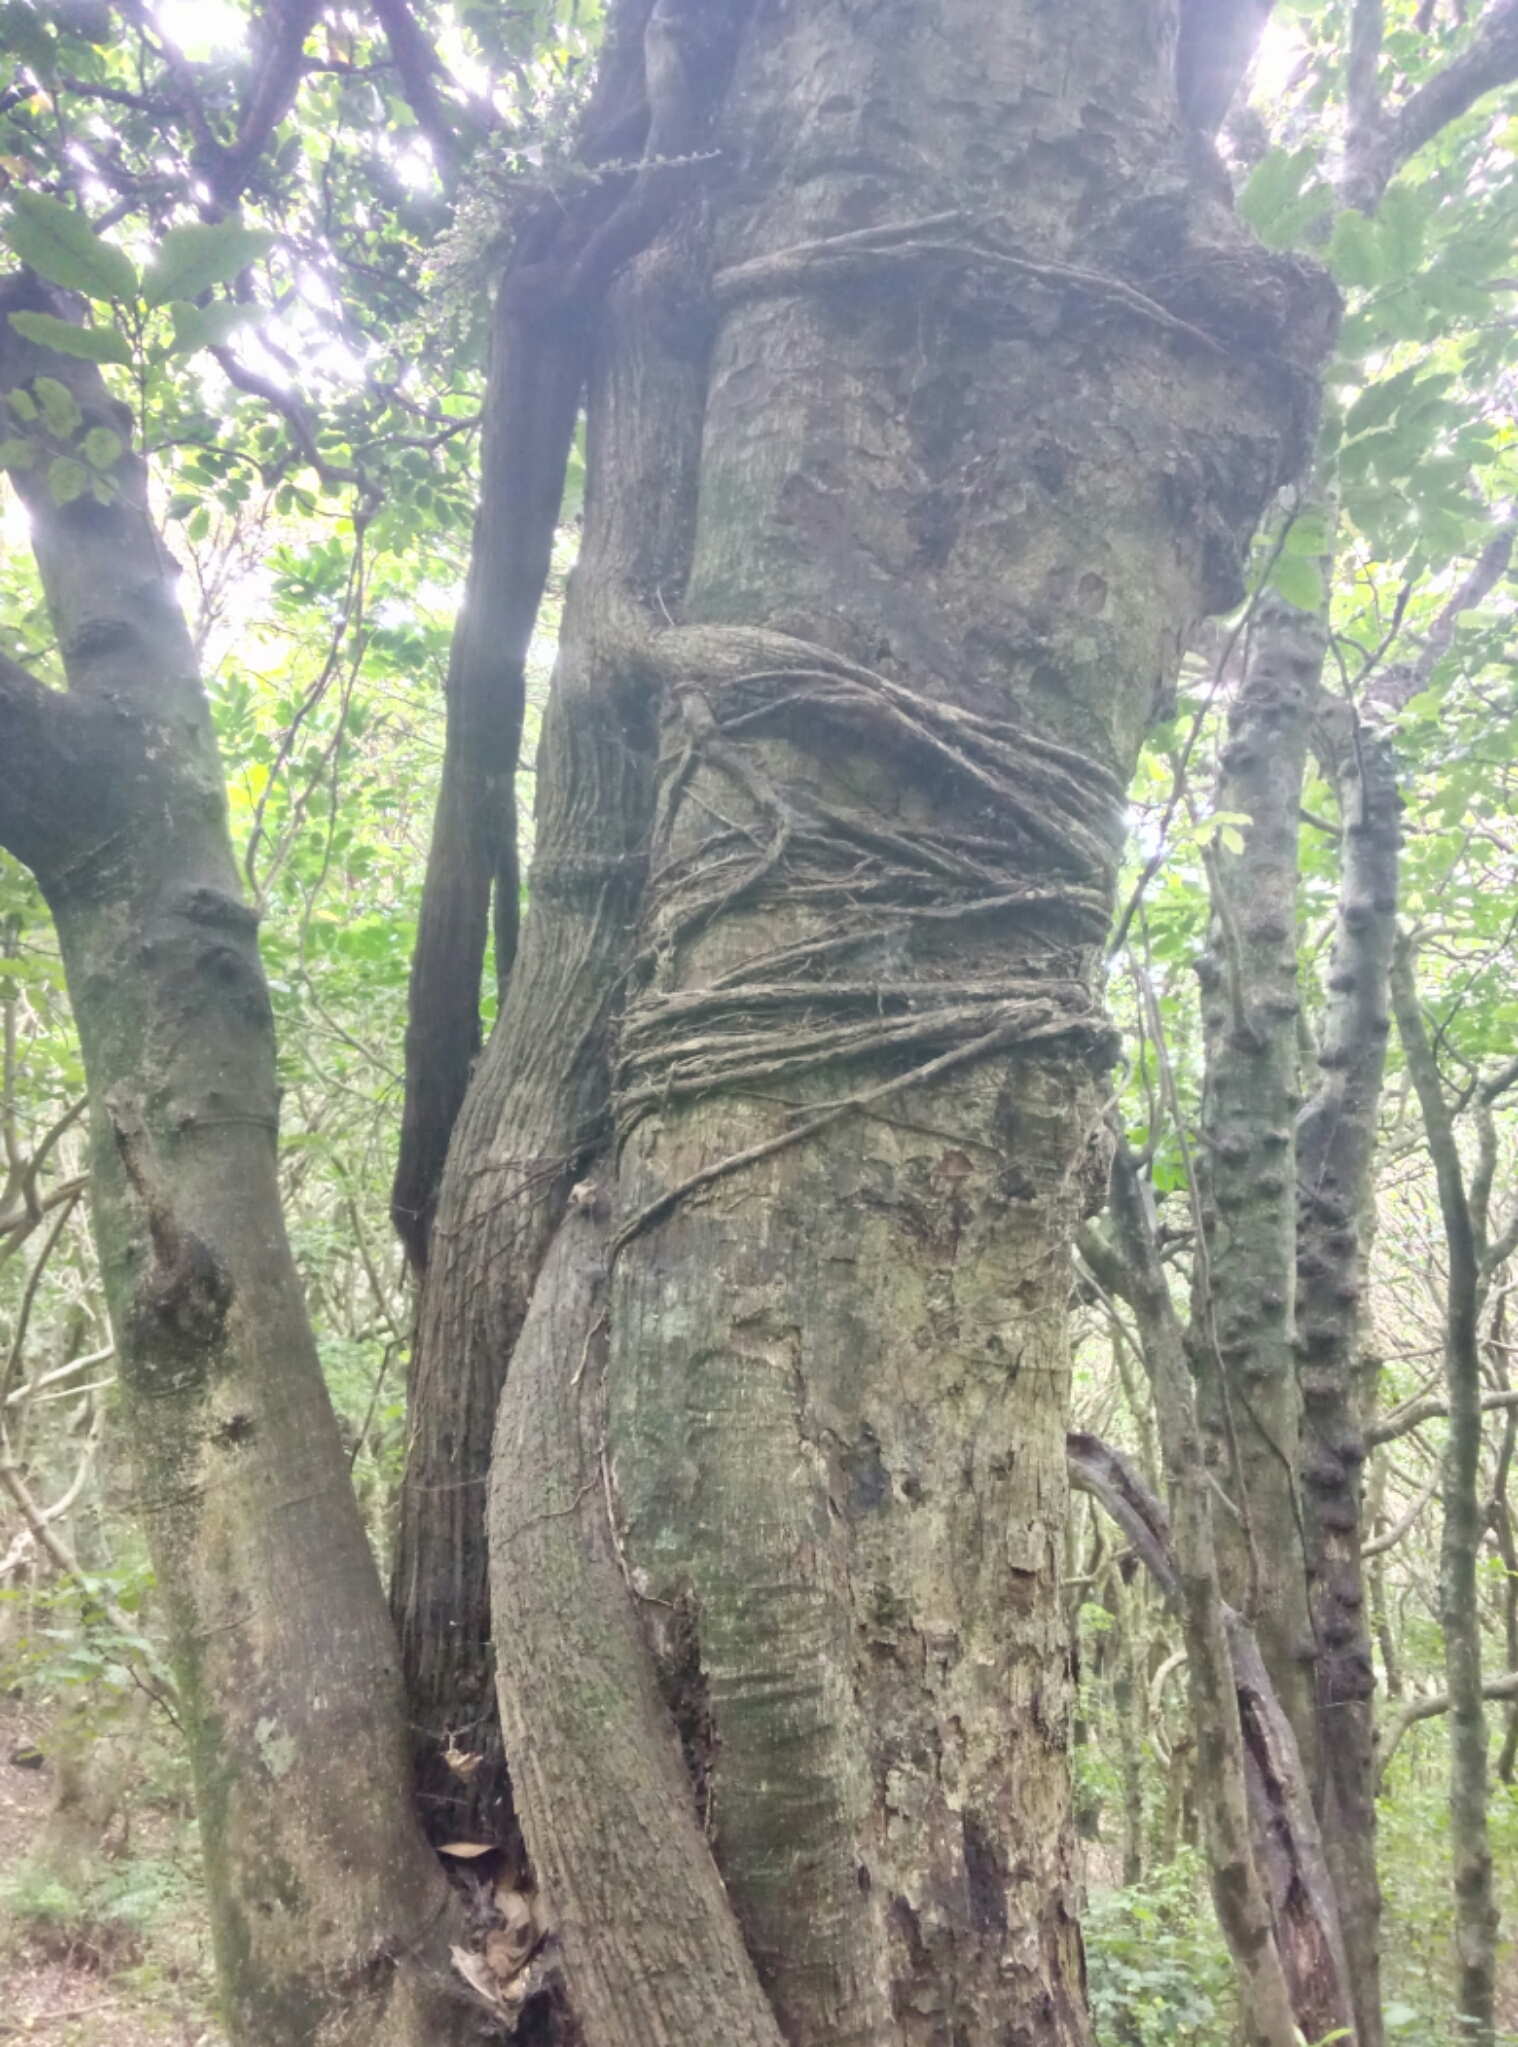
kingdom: Plantae
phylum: Tracheophyta
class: Magnoliopsida
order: Apiales
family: Griseliniaceae
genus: Griselinia
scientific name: Griselinia lucida
